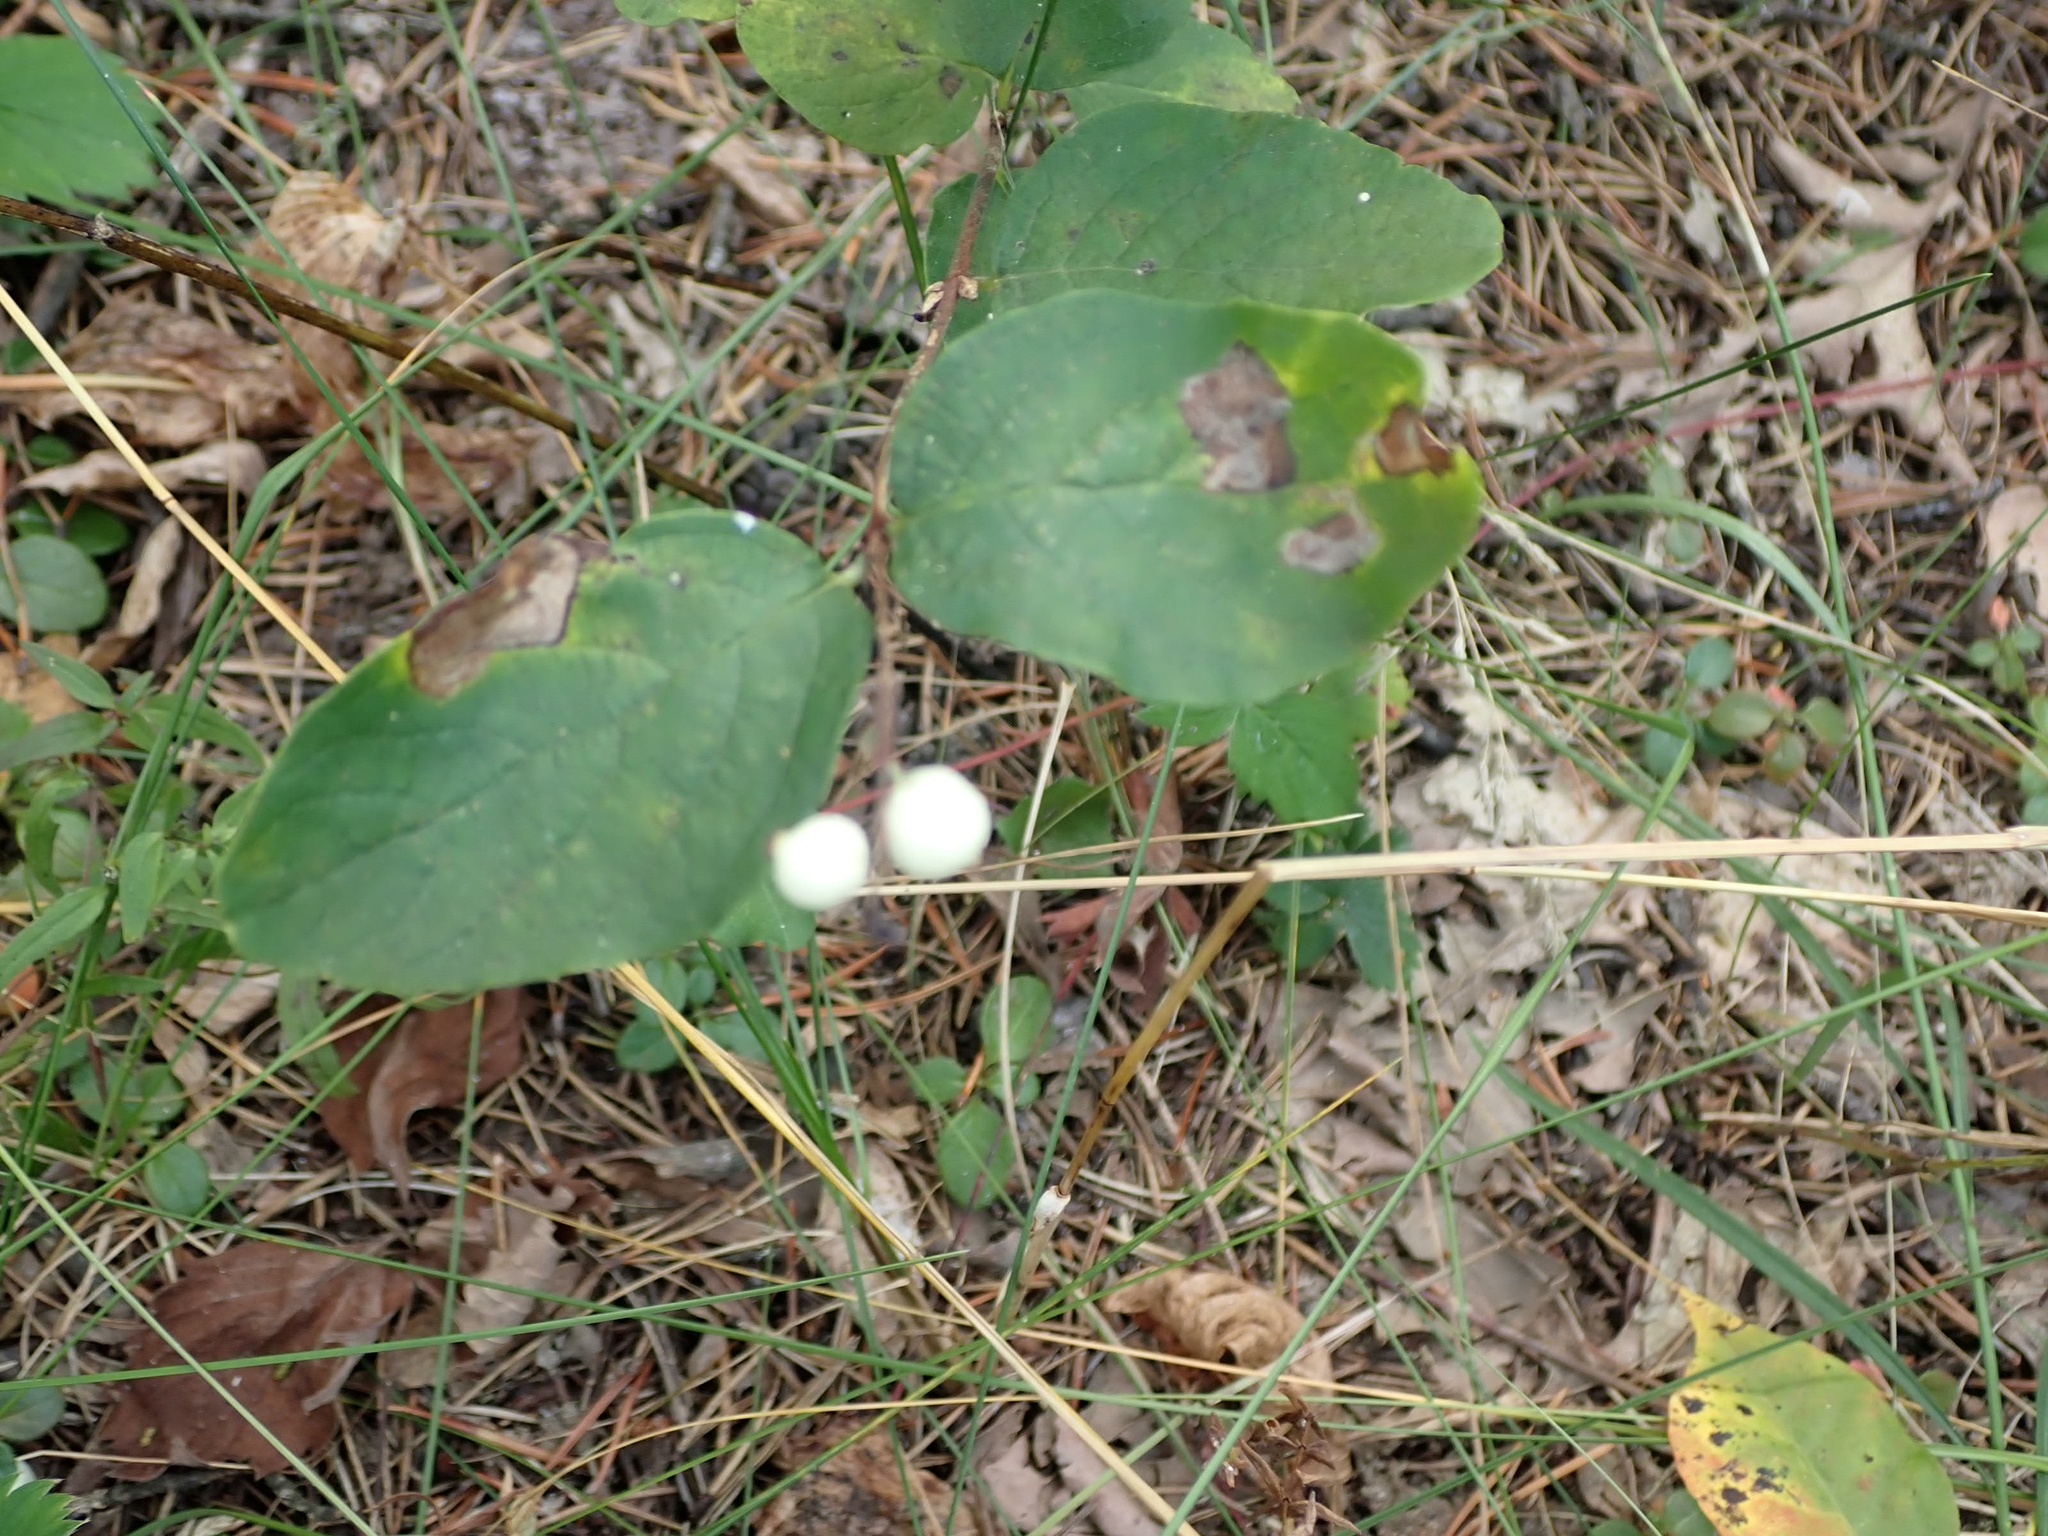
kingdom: Plantae
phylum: Tracheophyta
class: Magnoliopsida
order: Dipsacales
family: Caprifoliaceae
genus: Symphoricarpos
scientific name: Symphoricarpos albus
